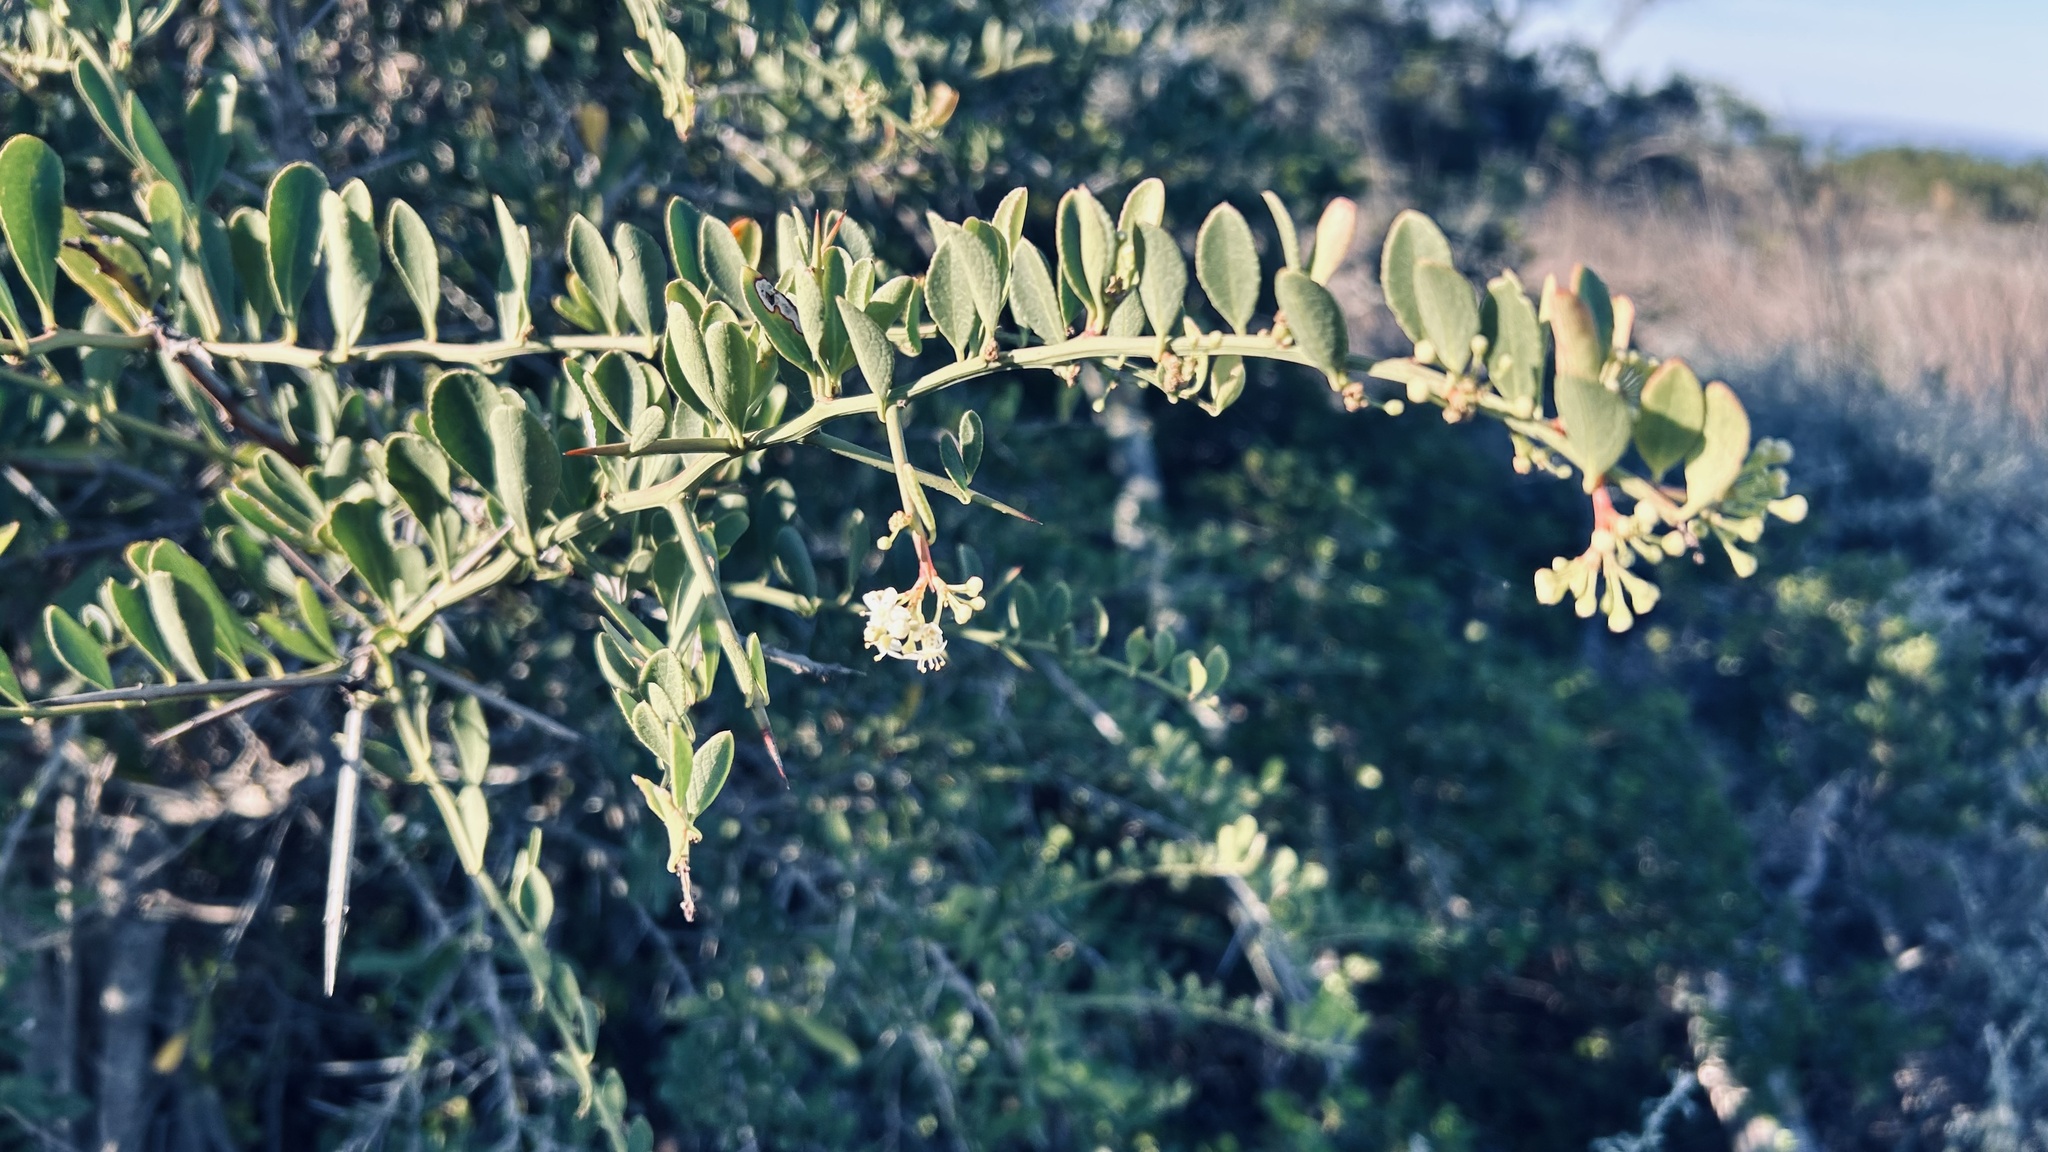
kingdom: Plantae
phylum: Tracheophyta
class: Magnoliopsida
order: Celastrales
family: Celastraceae
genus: Gymnosporia
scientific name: Gymnosporia buxifolia
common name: Common spike-thorn
